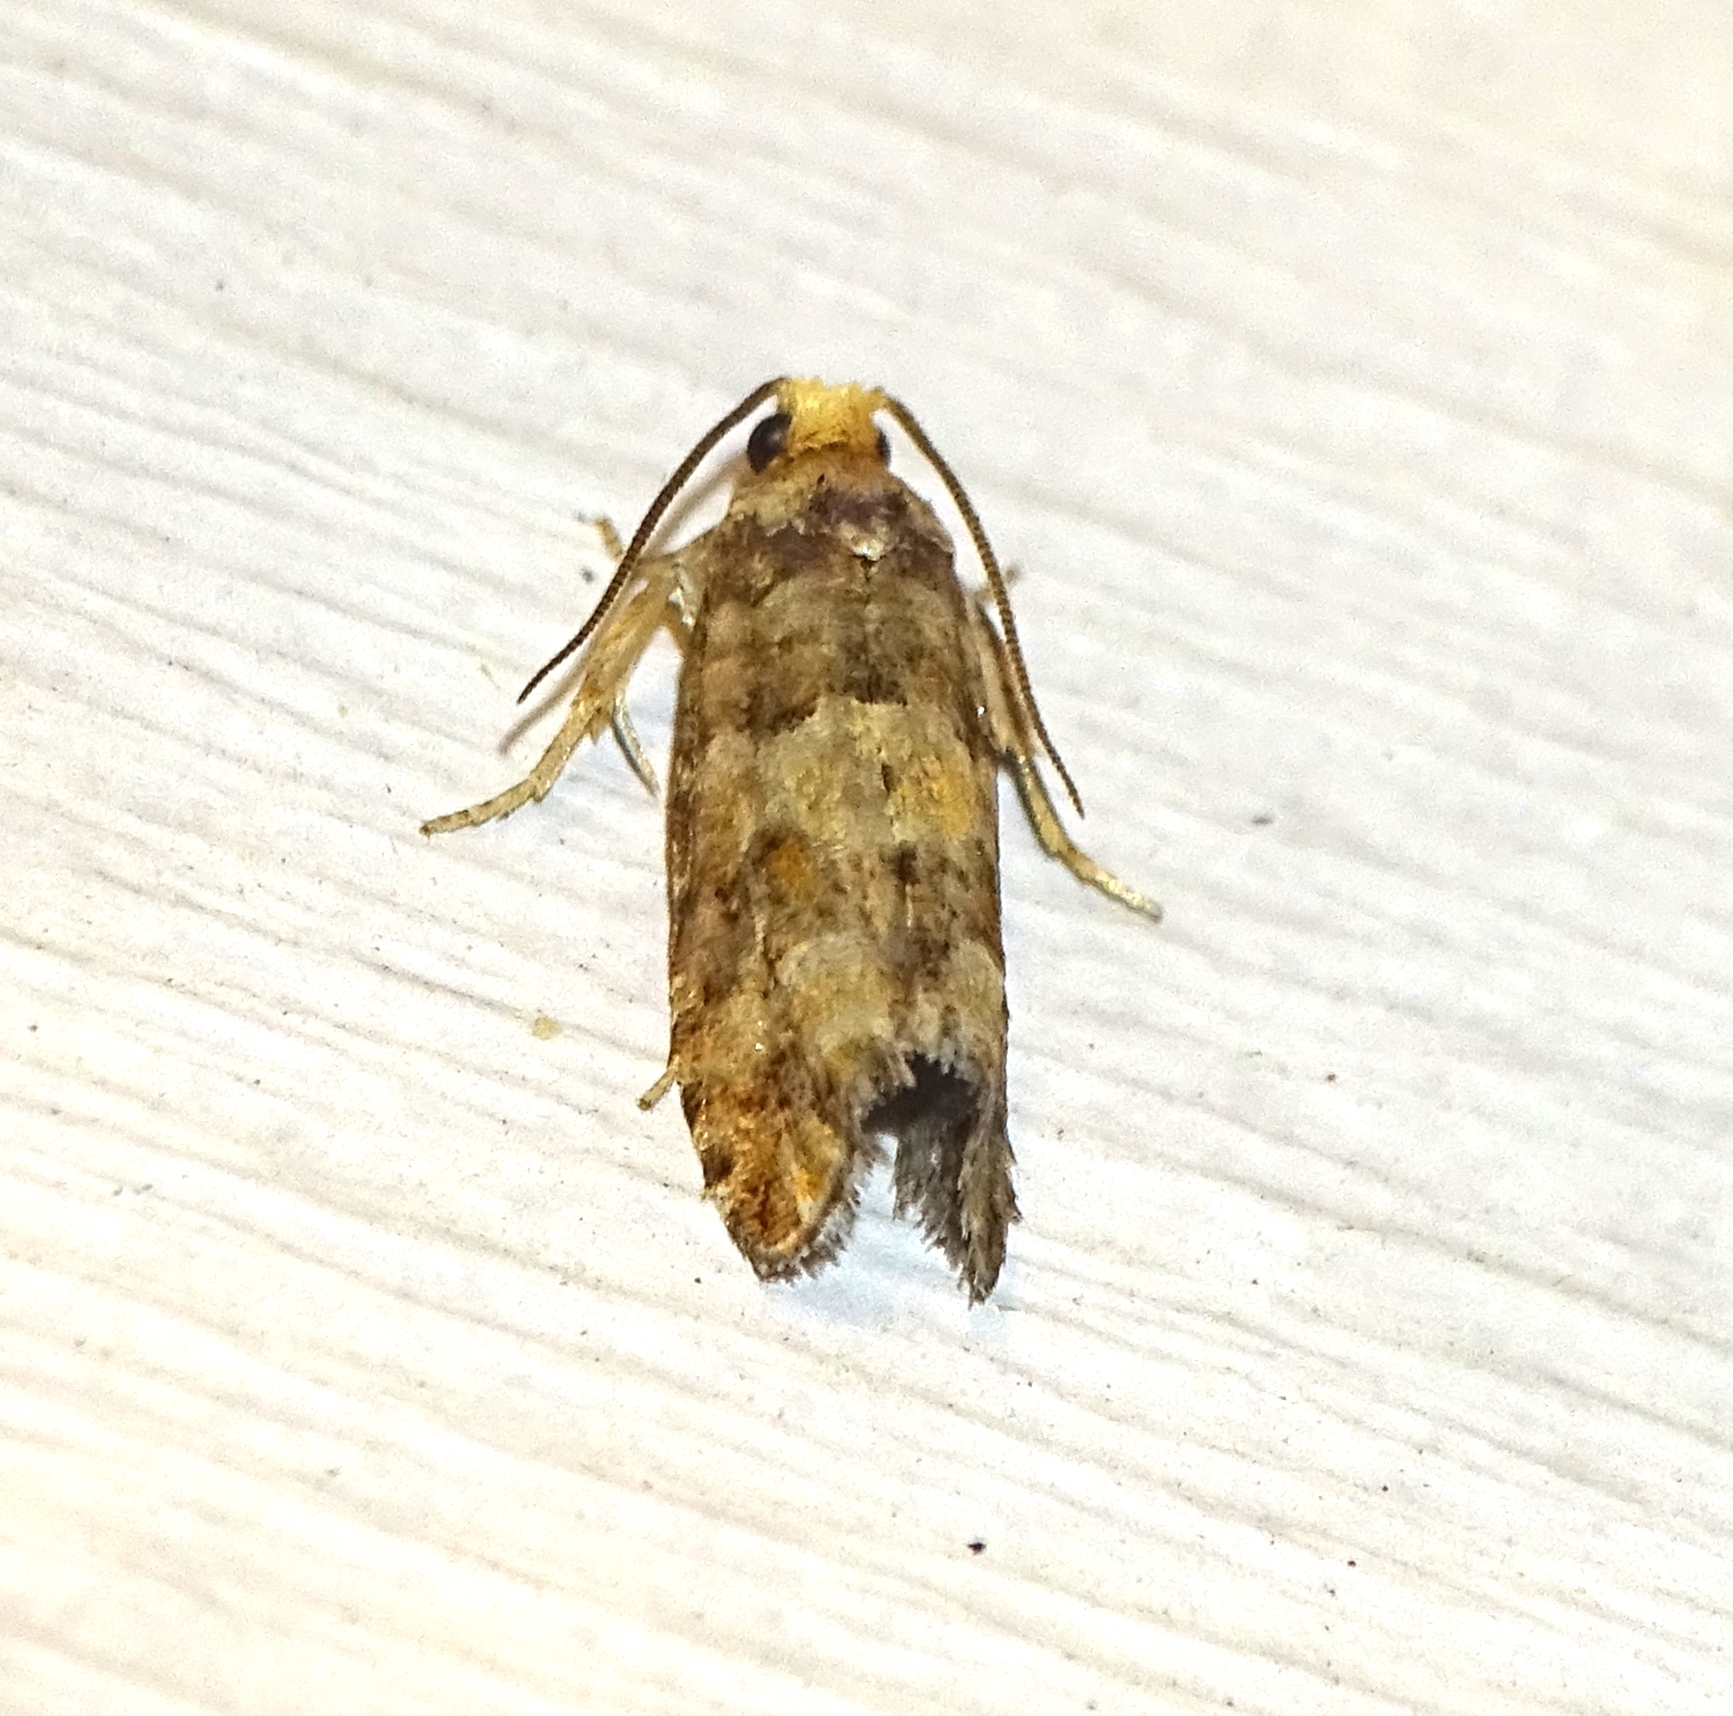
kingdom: Animalia
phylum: Arthropoda
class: Insecta
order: Lepidoptera
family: Tortricidae
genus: Eucopina
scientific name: Eucopina tocullionana
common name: White pinecone borer moth
